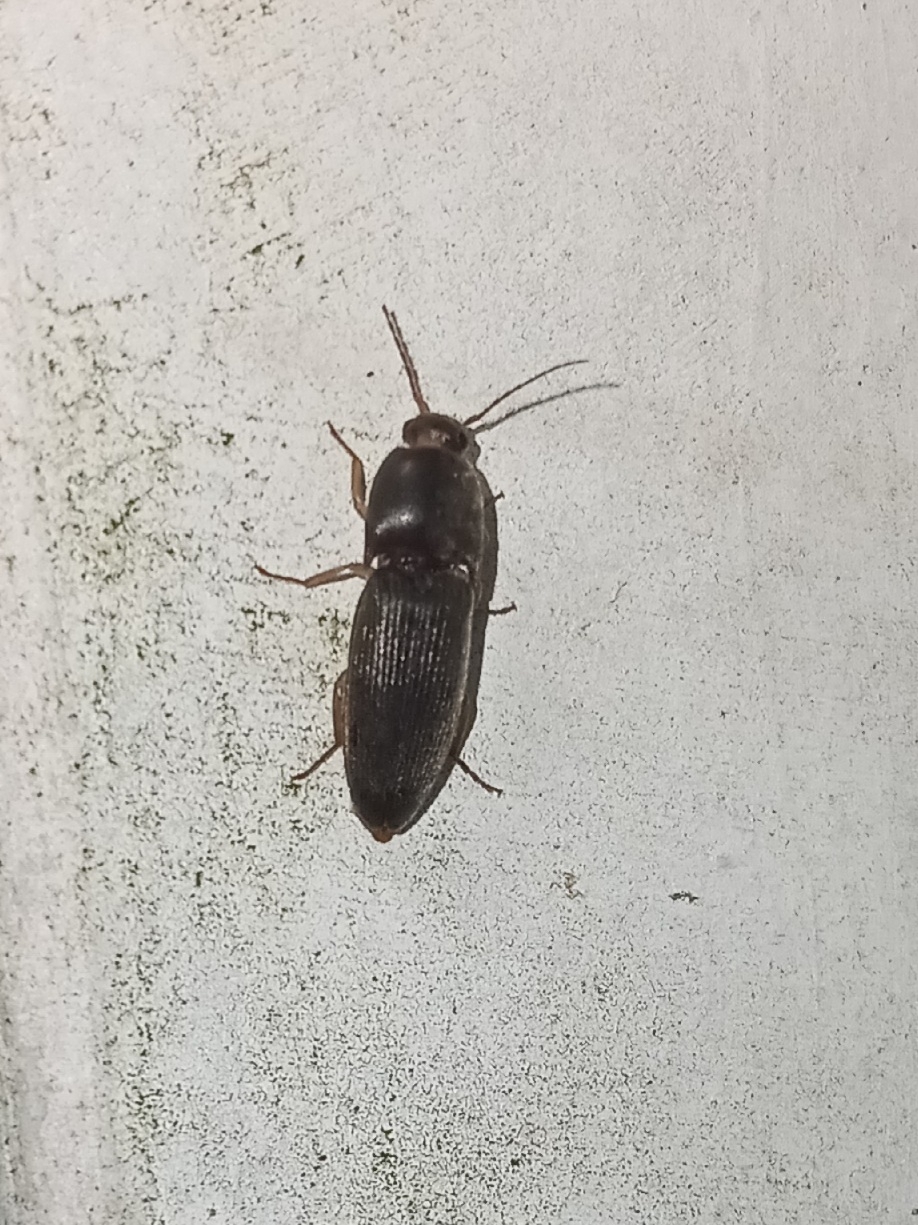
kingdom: Animalia
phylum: Arthropoda
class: Insecta
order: Coleoptera
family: Elateridae
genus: Conoderus
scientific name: Conoderus exsul
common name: Click beetle
